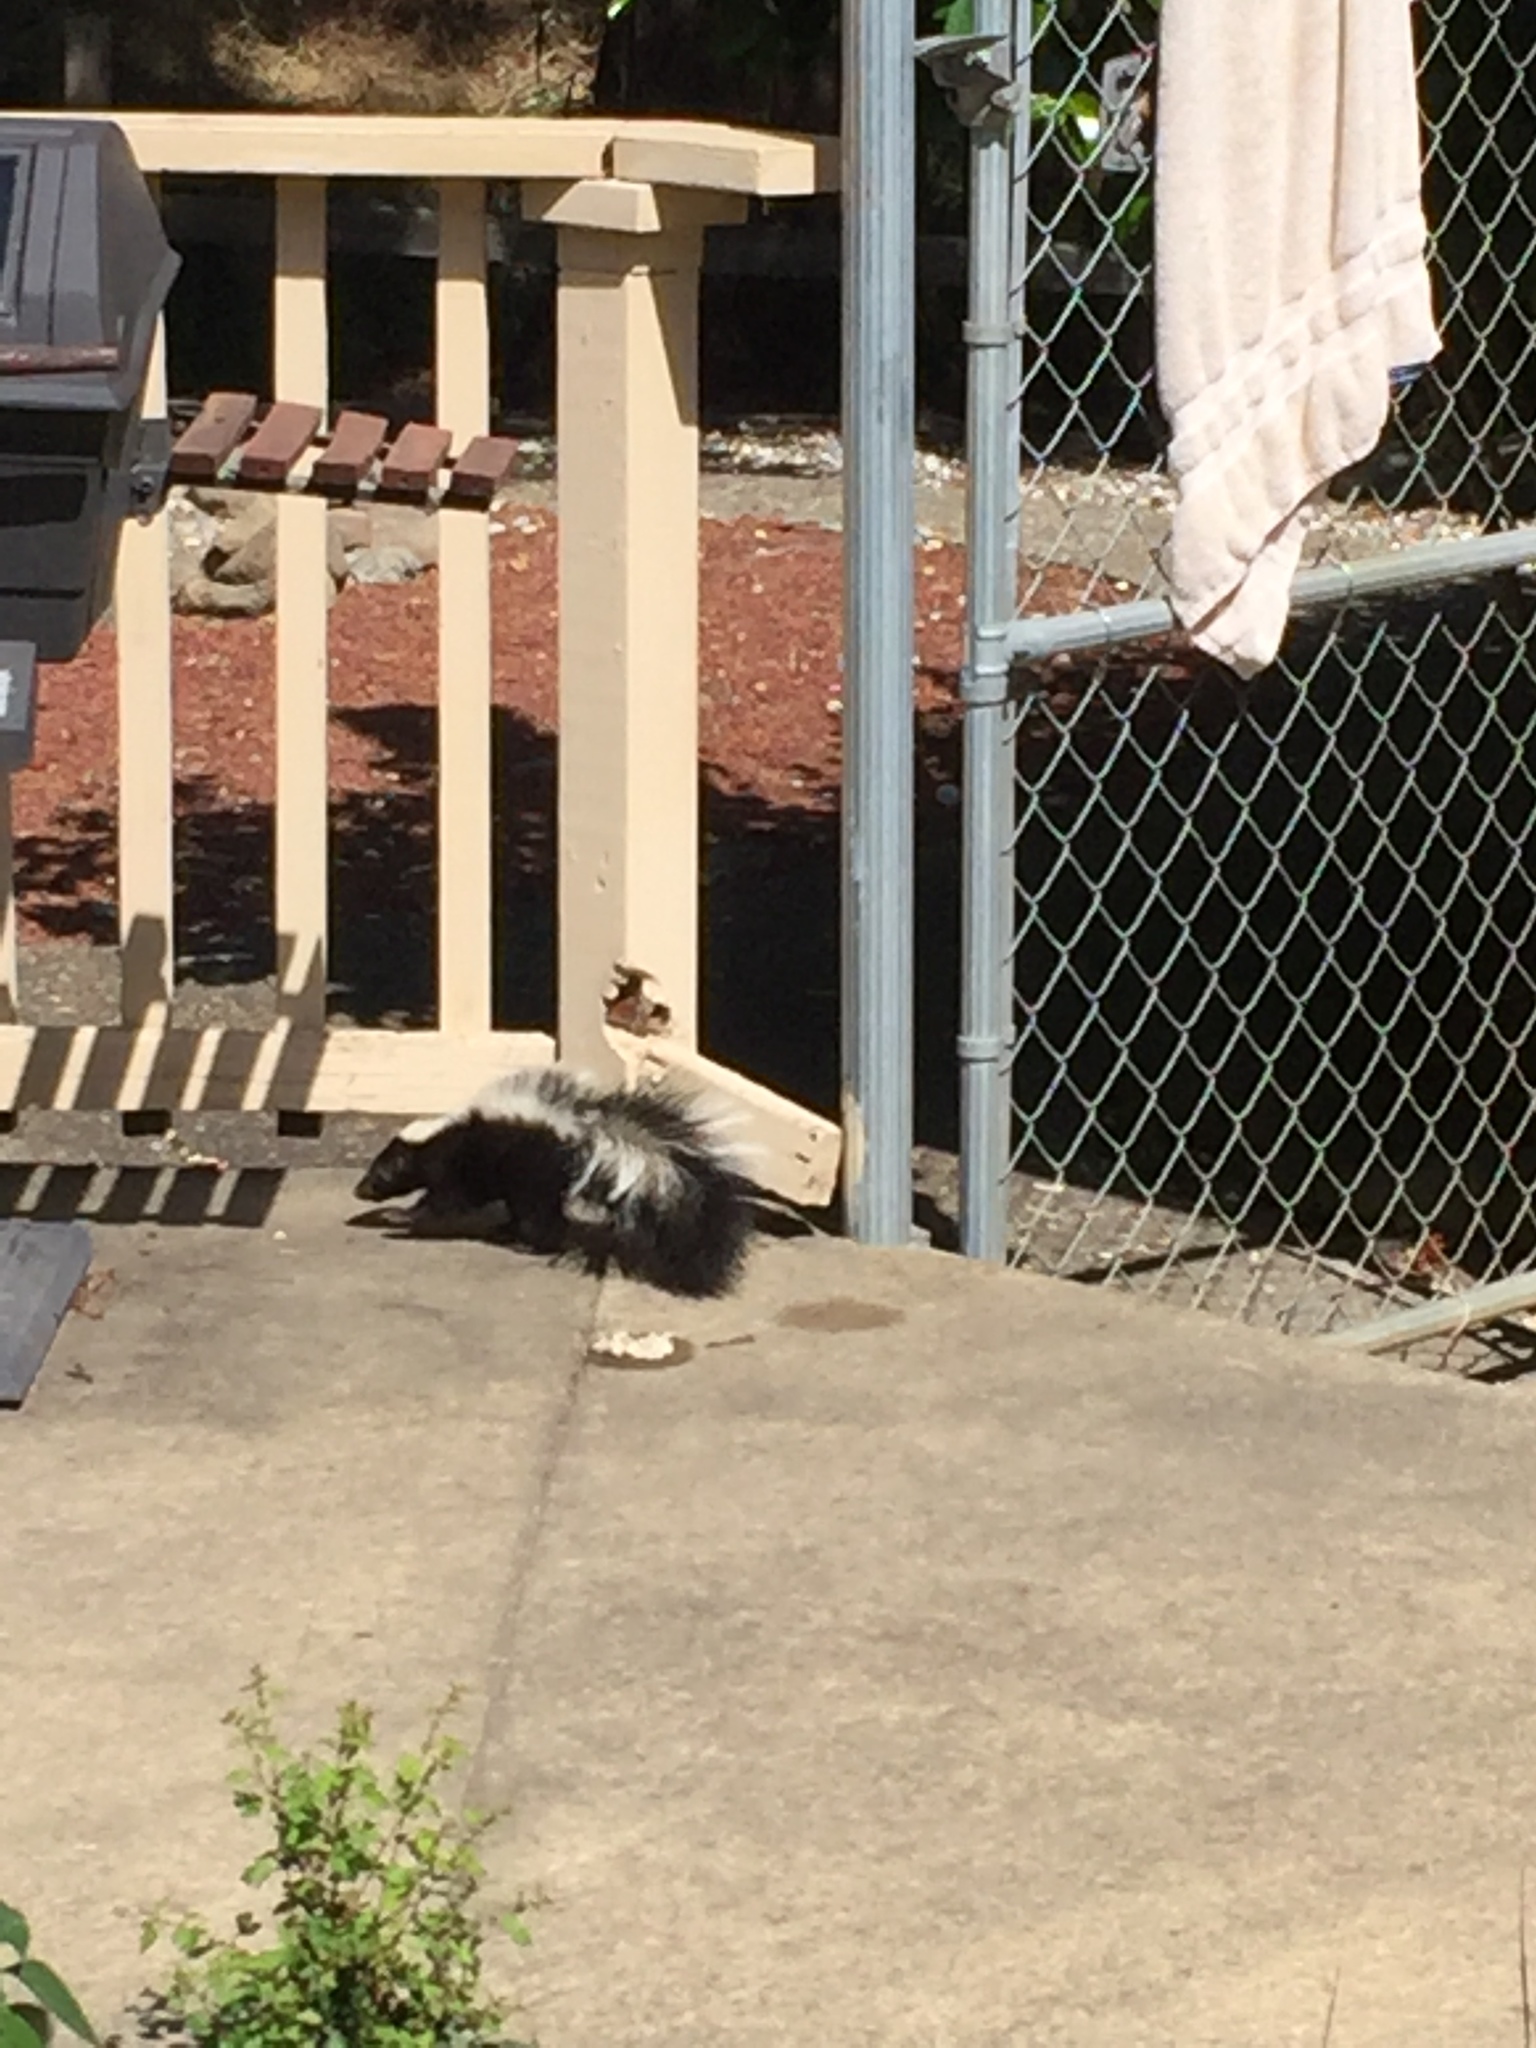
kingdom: Animalia
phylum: Chordata
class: Mammalia
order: Carnivora
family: Mephitidae
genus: Mephitis
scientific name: Mephitis mephitis
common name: Striped skunk
